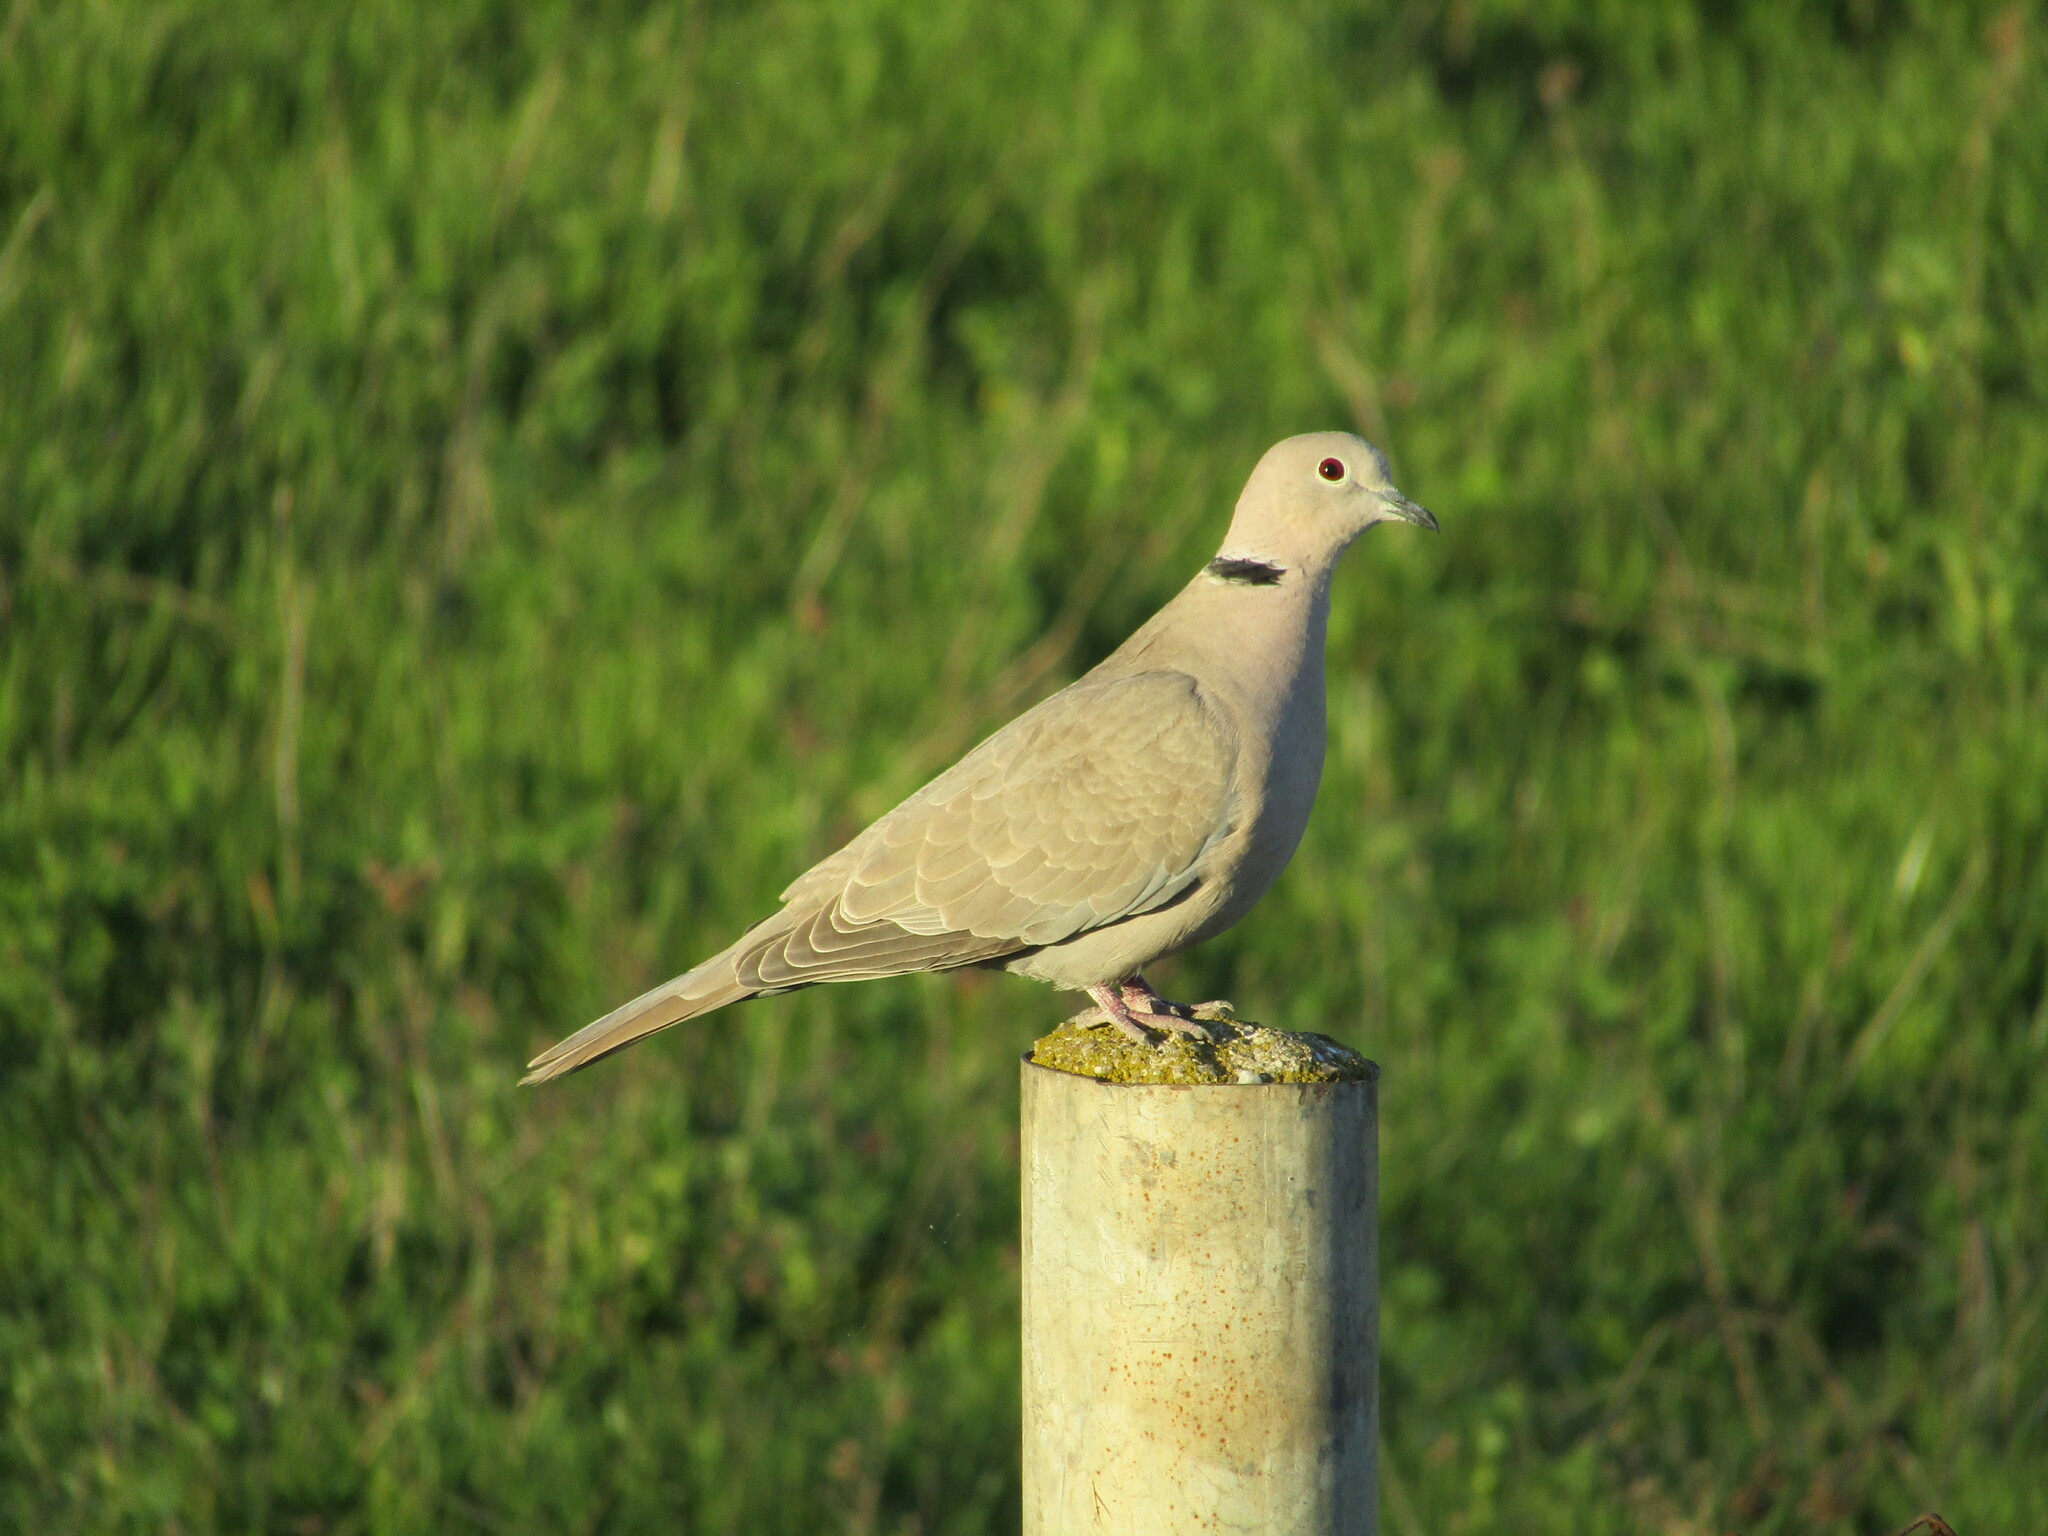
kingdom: Animalia
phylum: Chordata
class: Aves
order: Columbiformes
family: Columbidae
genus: Streptopelia
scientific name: Streptopelia decaocto
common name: Eurasian collared dove
